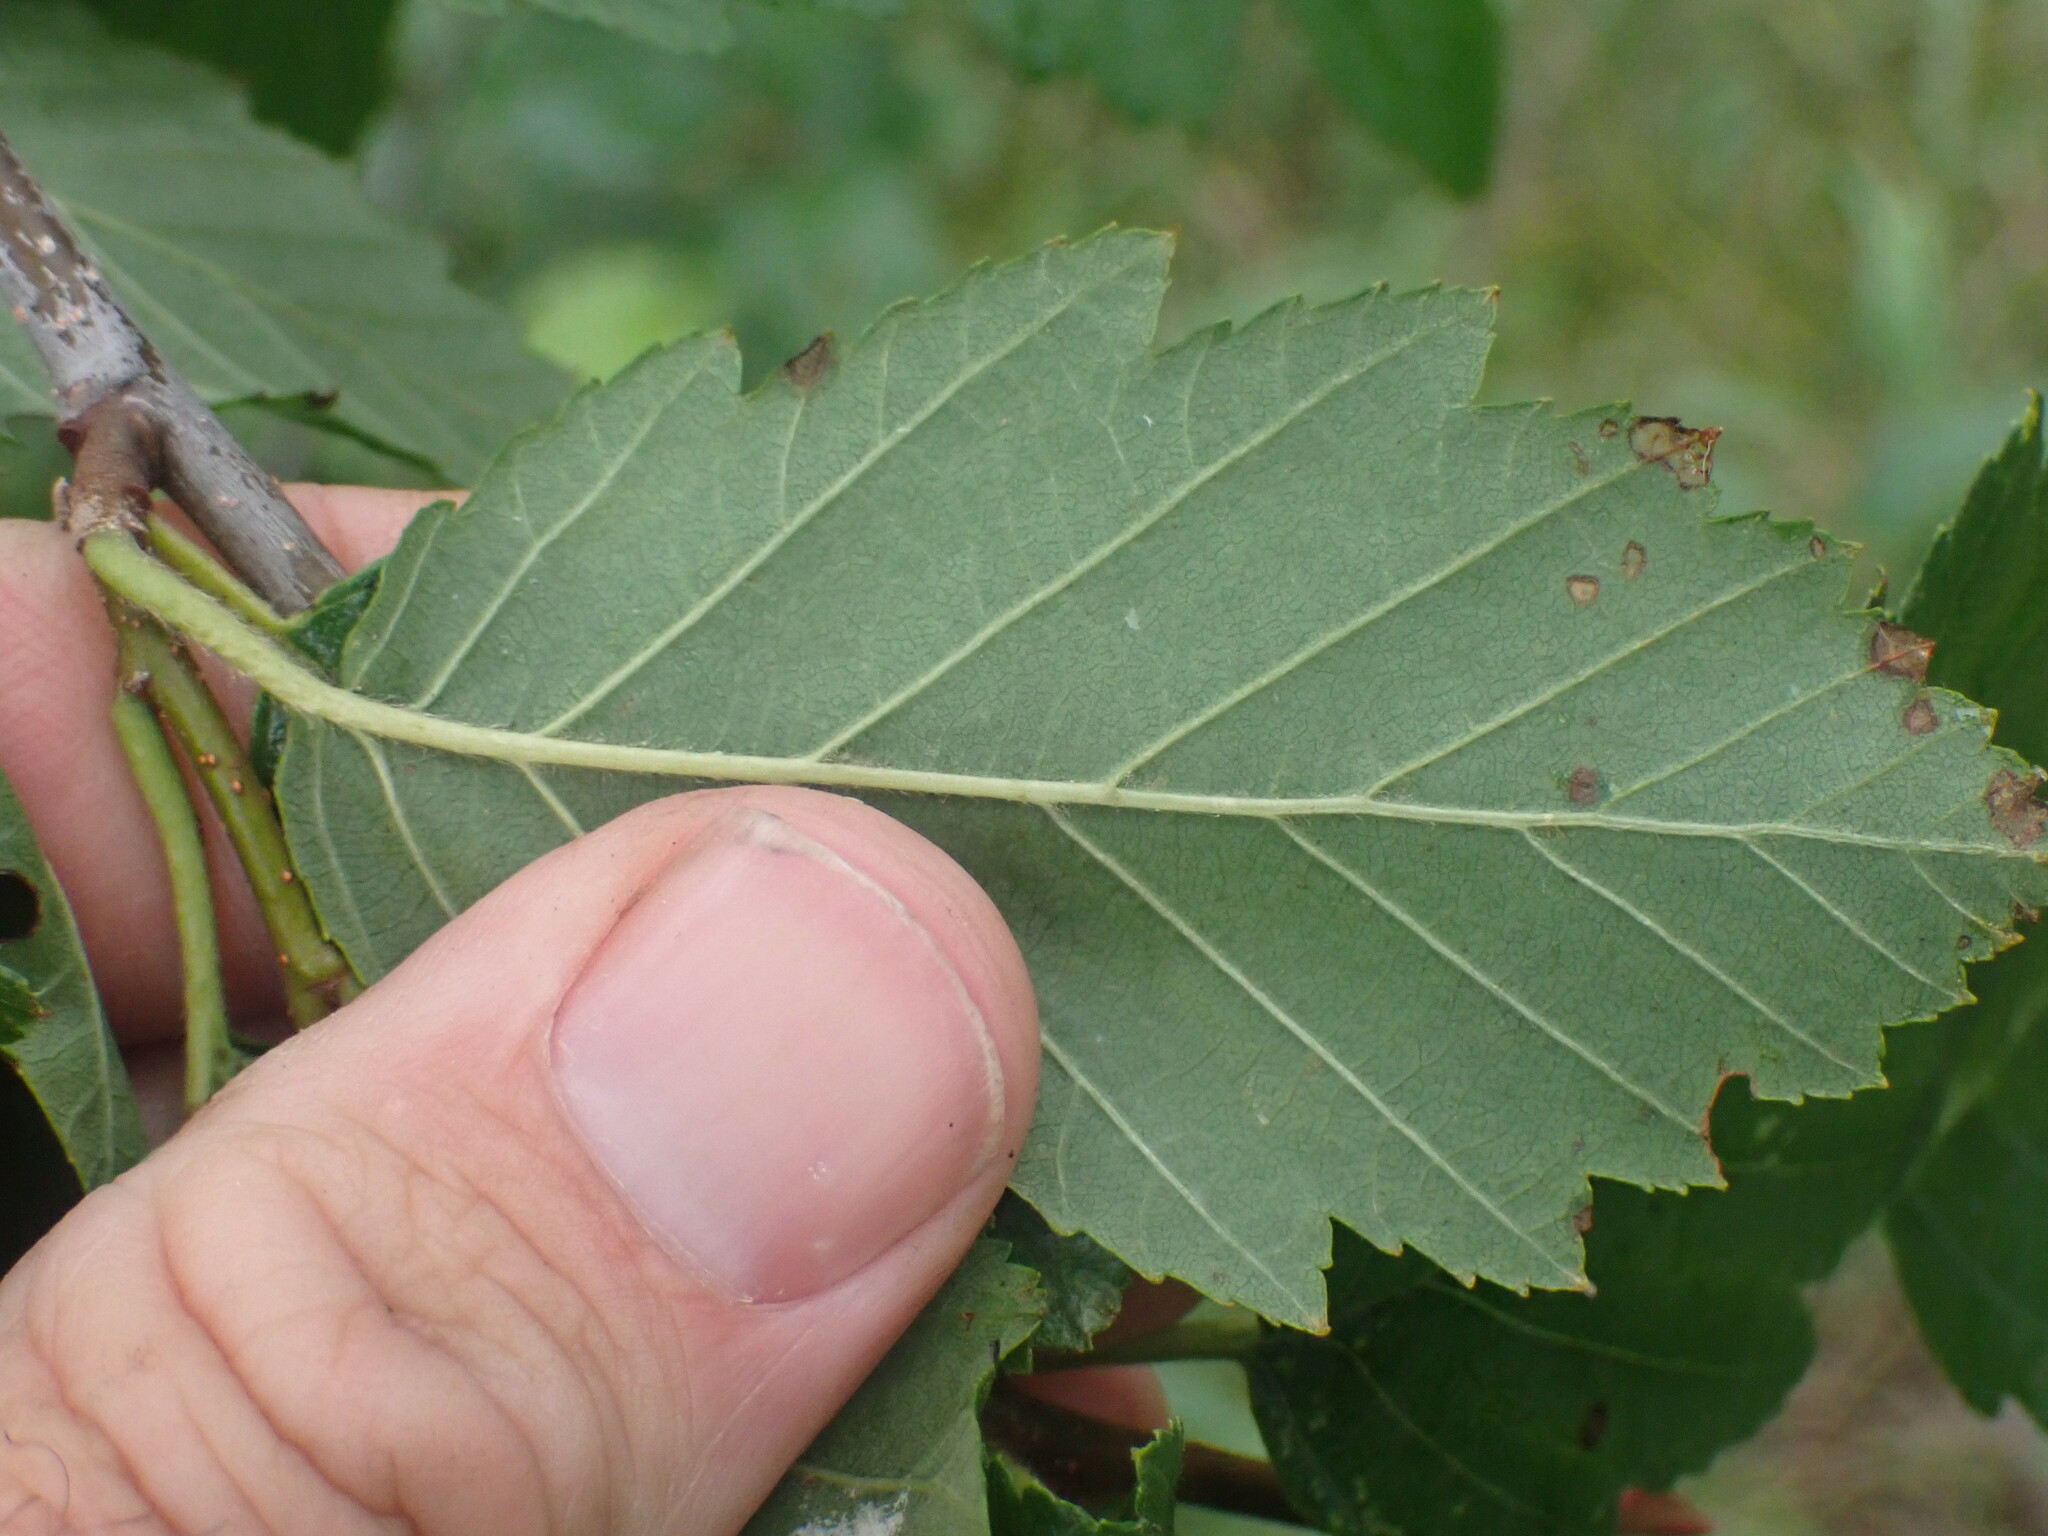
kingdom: Plantae
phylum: Tracheophyta
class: Magnoliopsida
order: Fagales
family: Betulaceae
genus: Alnus
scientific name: Alnus incana
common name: Grey alder
